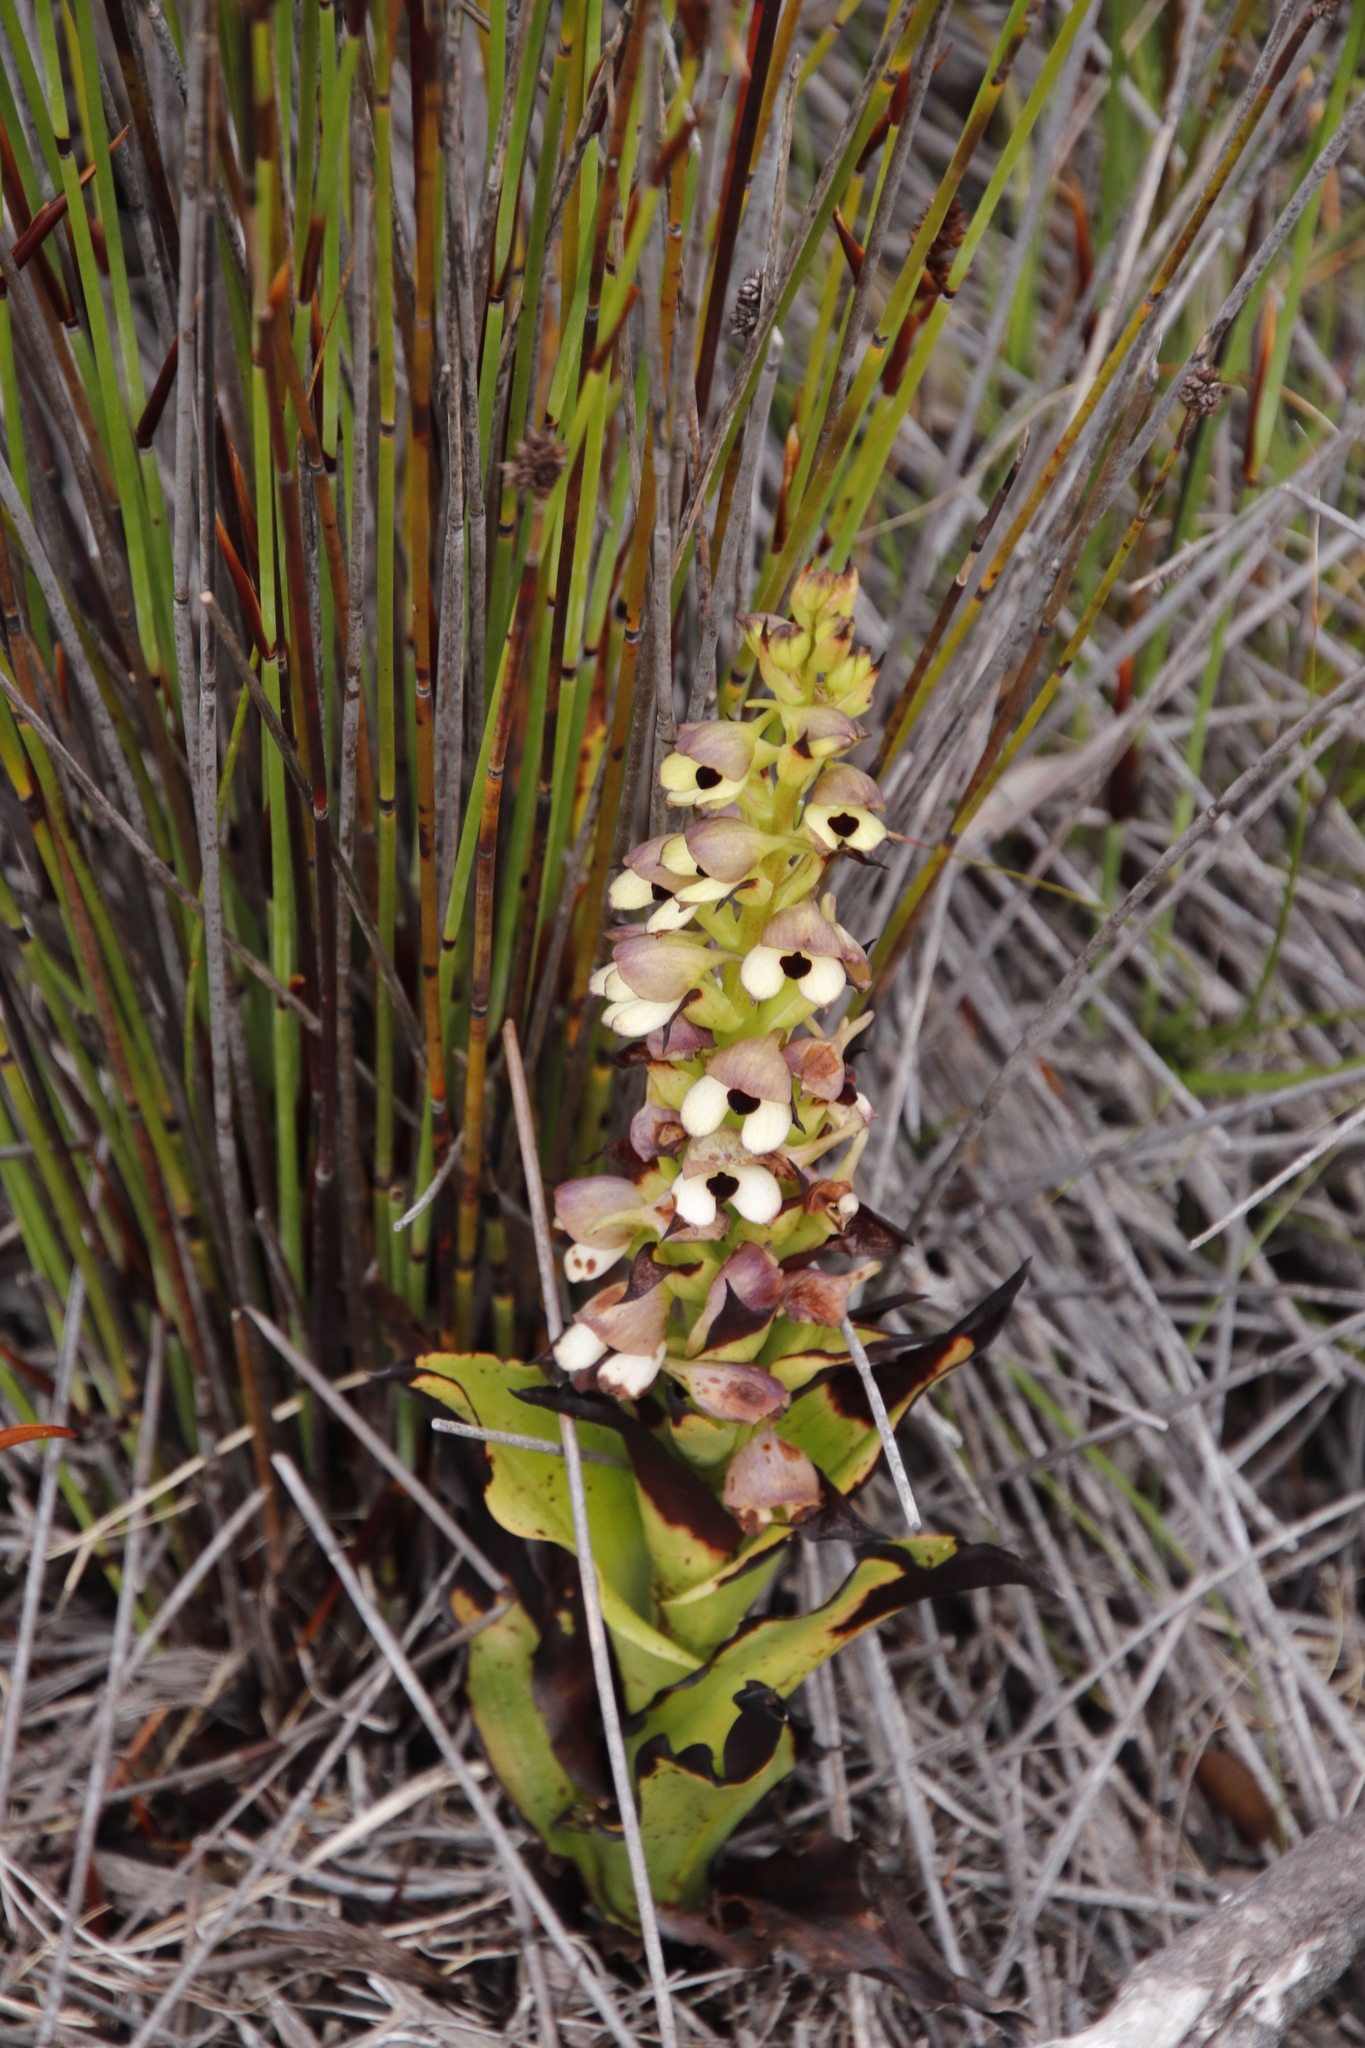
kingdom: Plantae
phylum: Tracheophyta
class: Liliopsida
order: Asparagales
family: Orchidaceae
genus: Disa
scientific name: Disa cornuta
